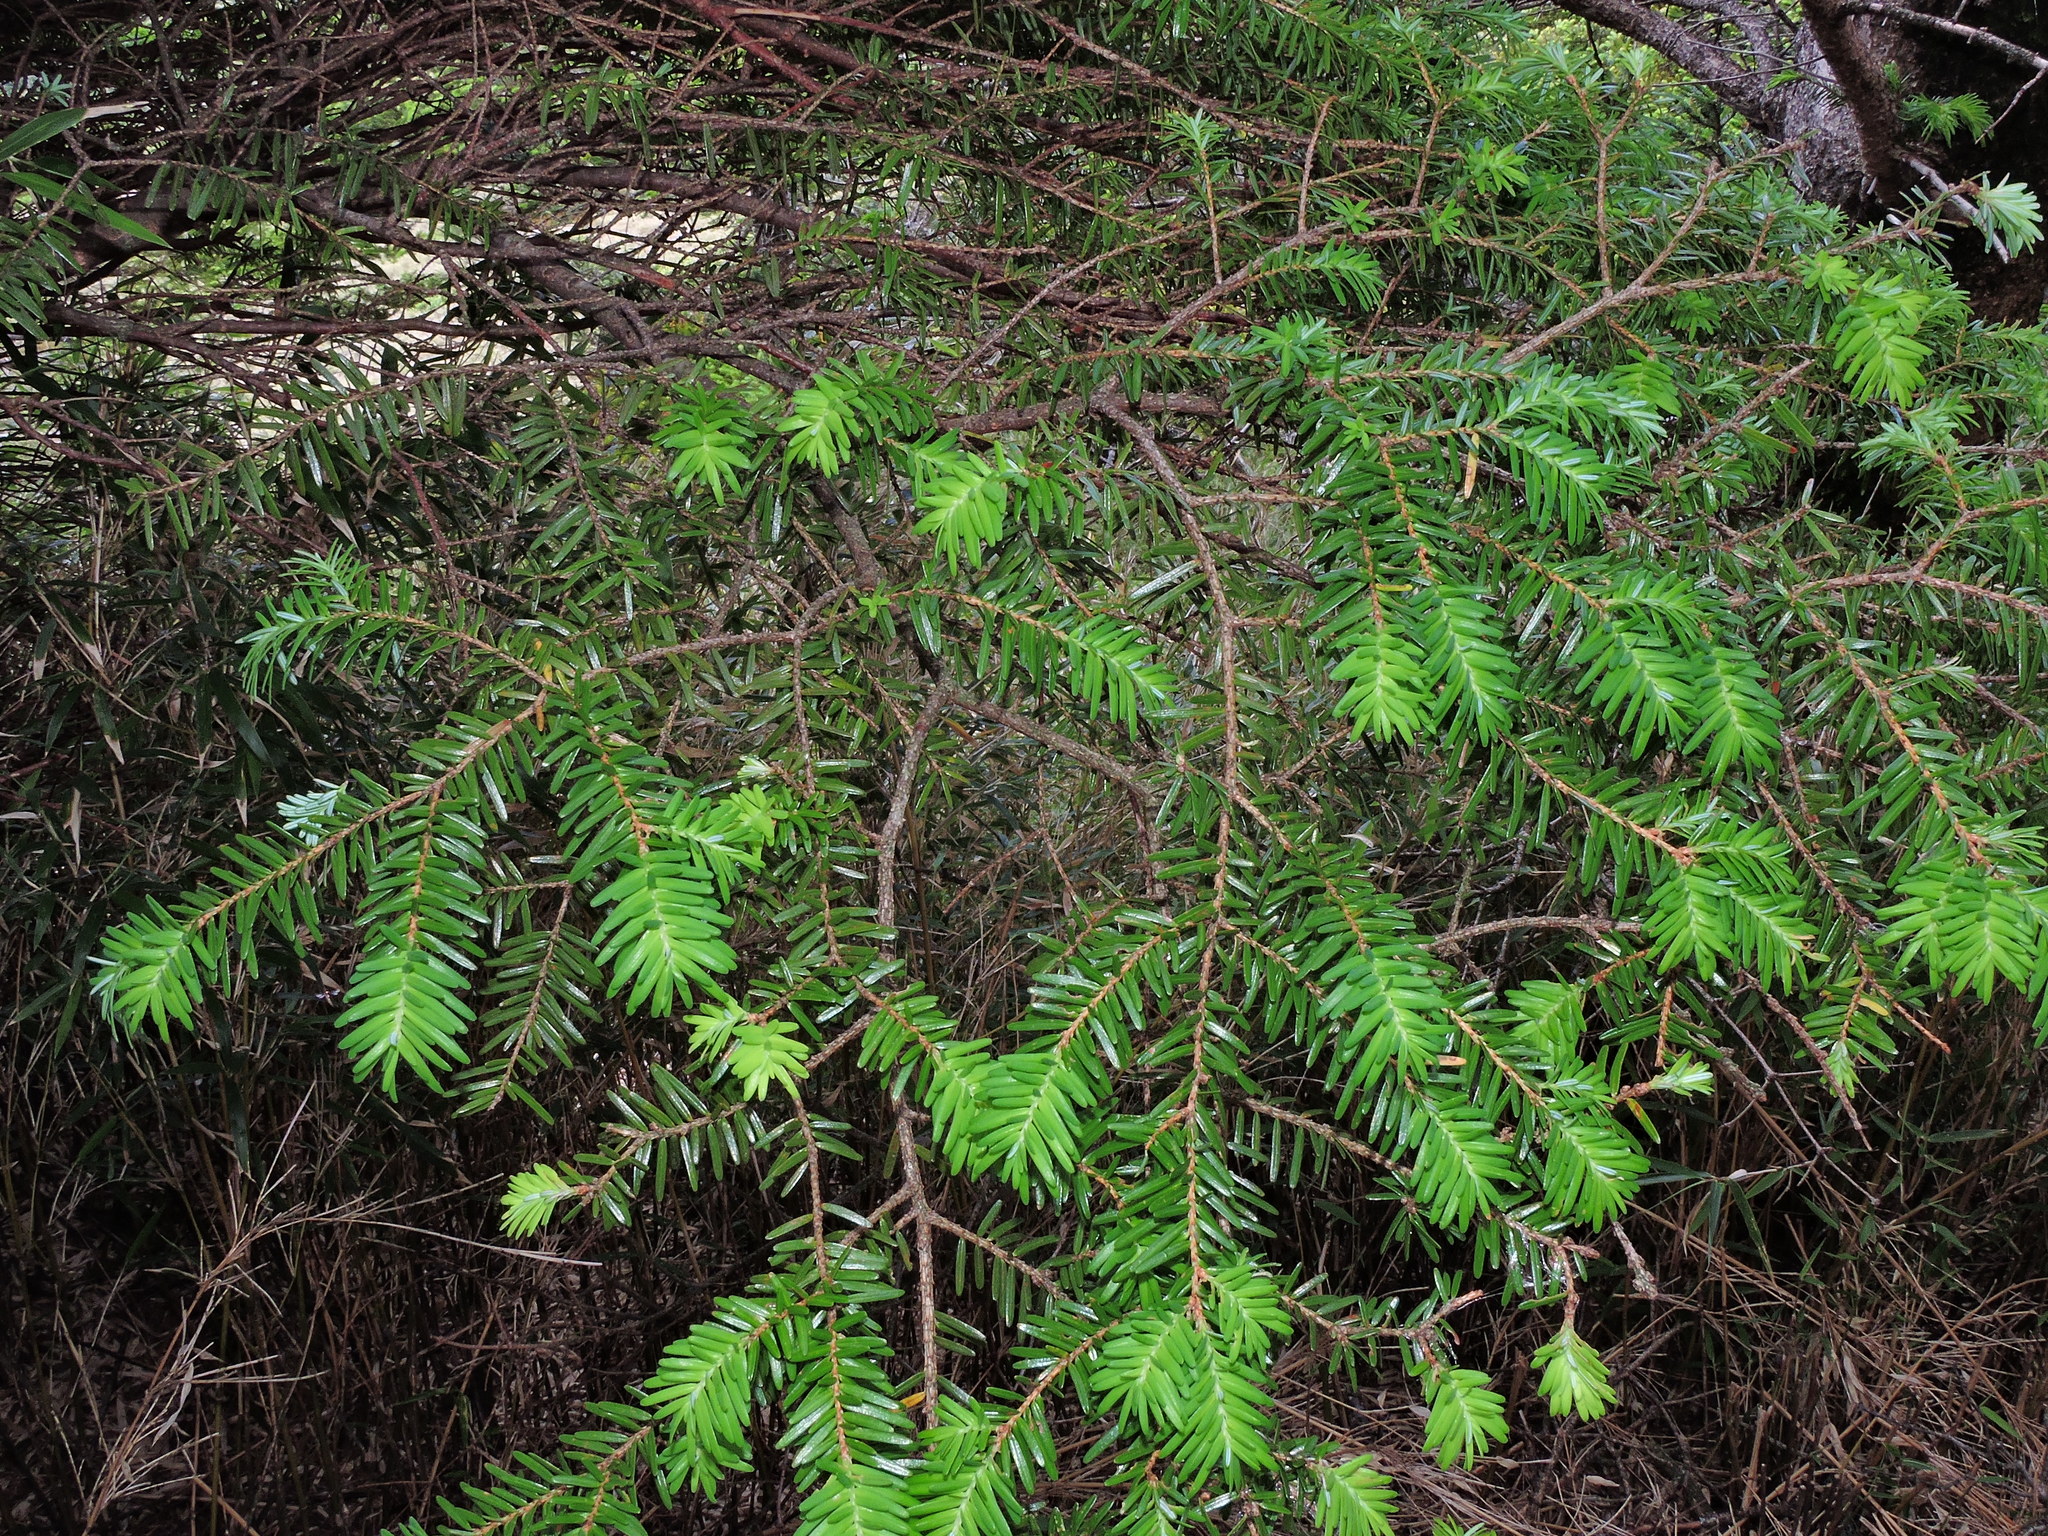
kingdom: Plantae
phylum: Tracheophyta
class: Pinopsida
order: Pinales
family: Pinaceae
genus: Tsuga
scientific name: Tsuga chinensis
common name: Chinese hemlock
